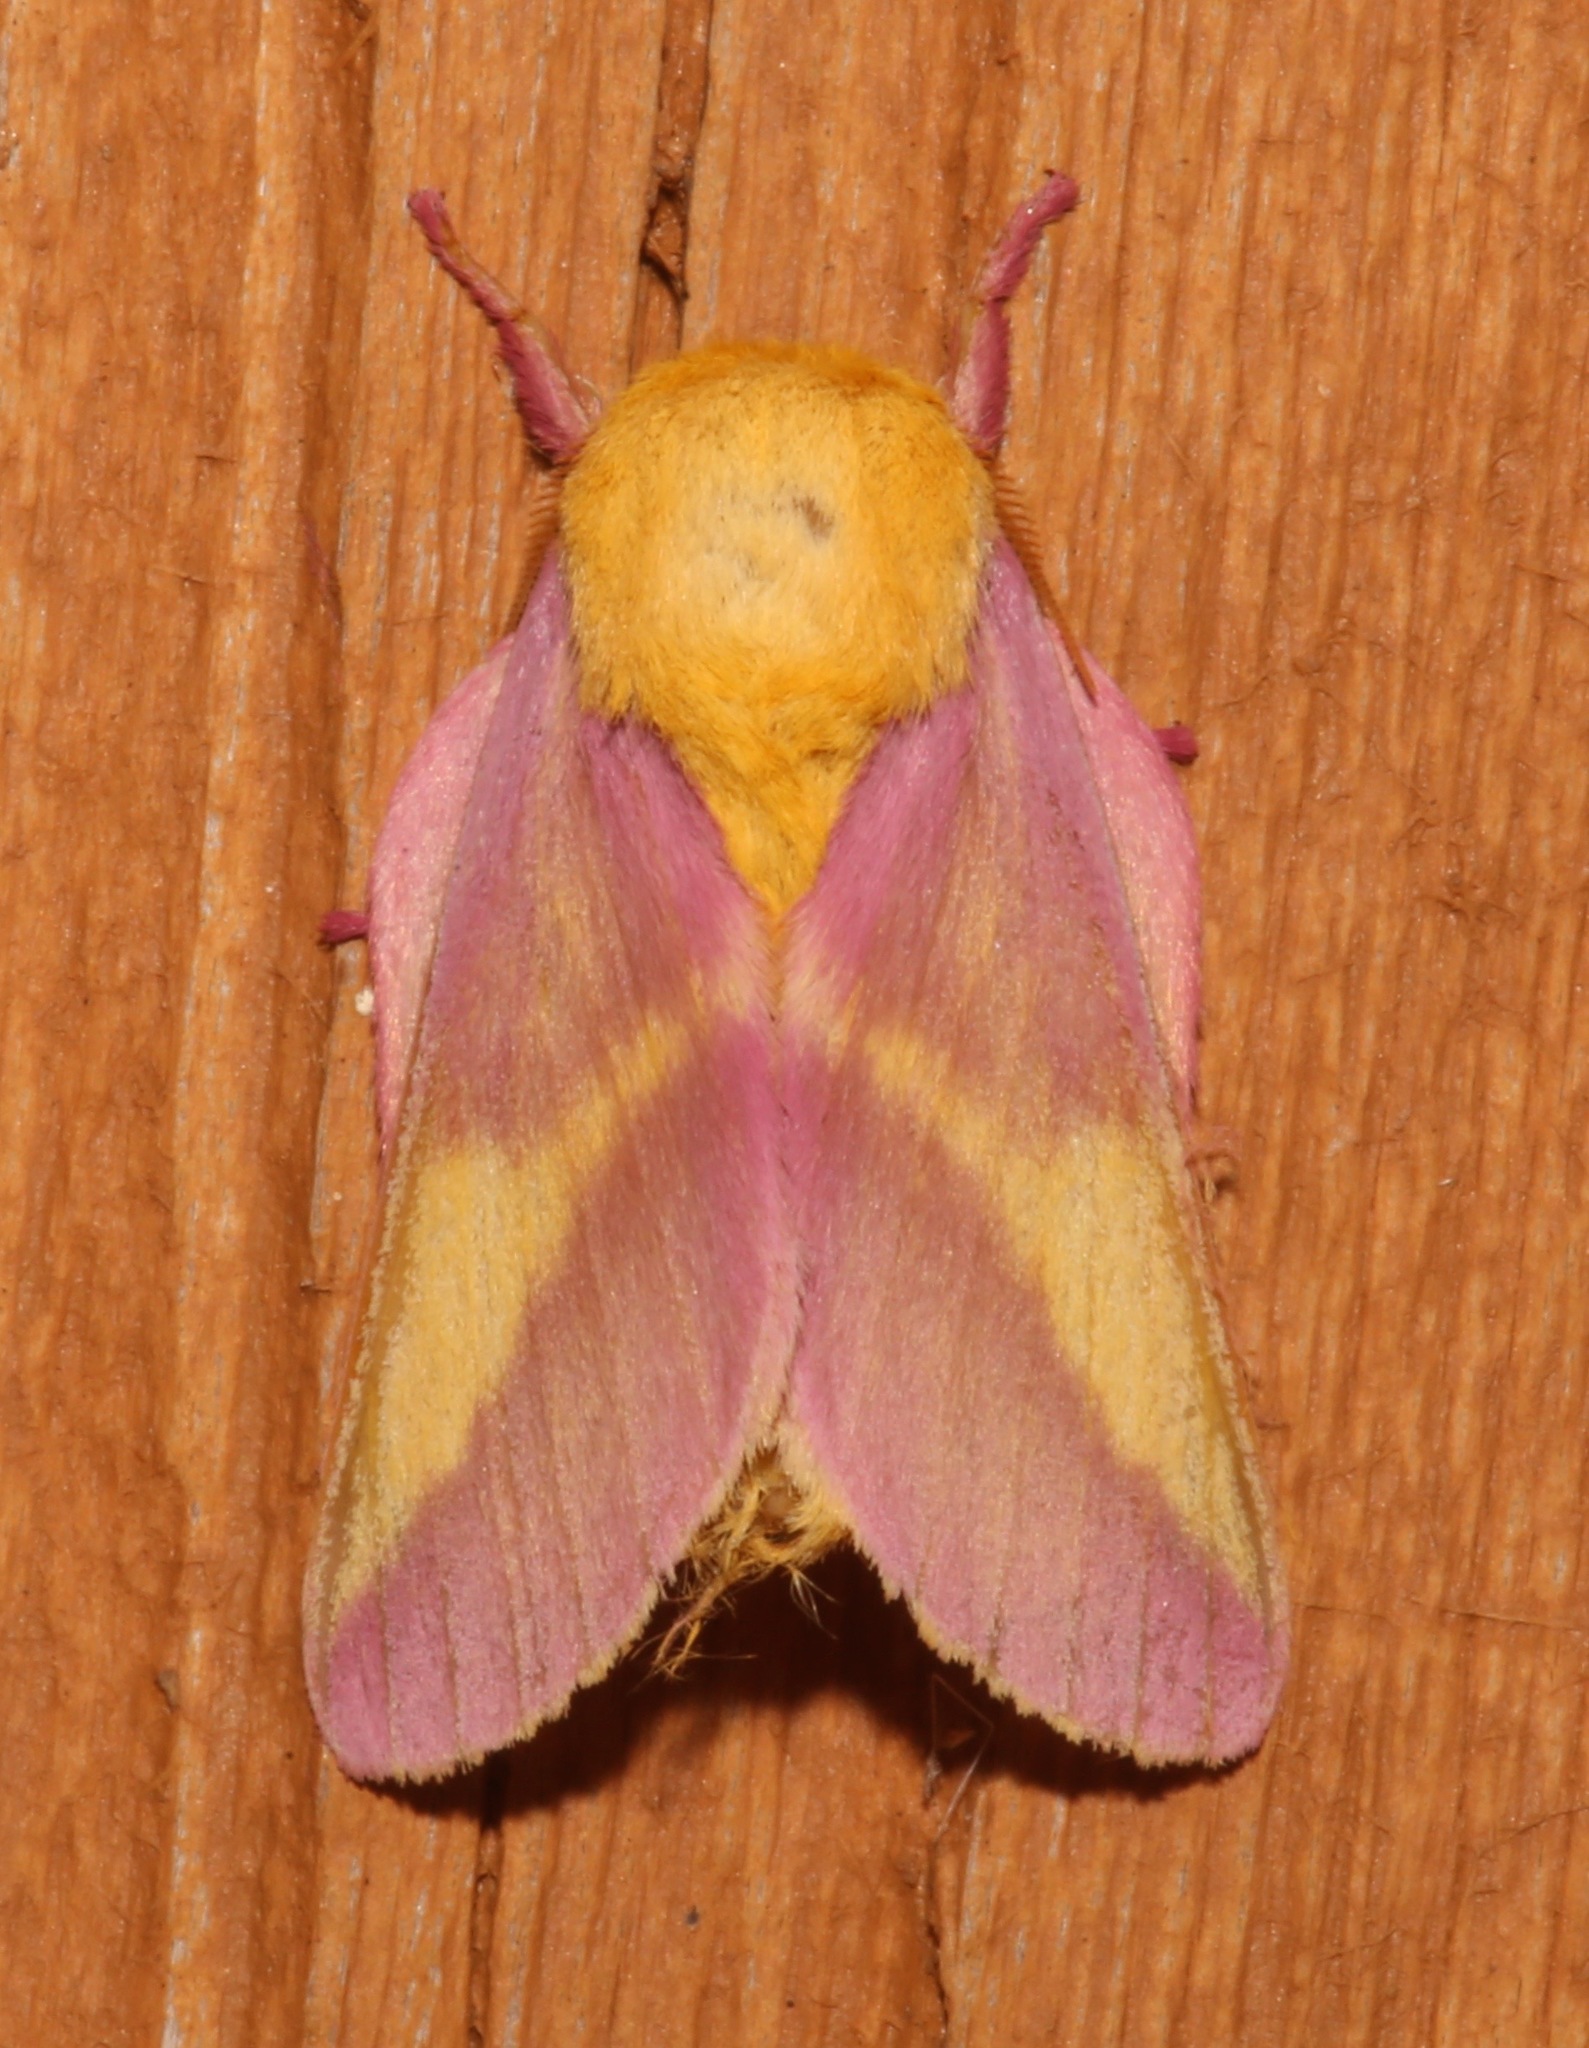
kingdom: Animalia
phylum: Arthropoda
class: Insecta
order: Lepidoptera
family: Saturniidae
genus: Dryocampa
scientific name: Dryocampa rubicunda
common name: Rosy maple moth
